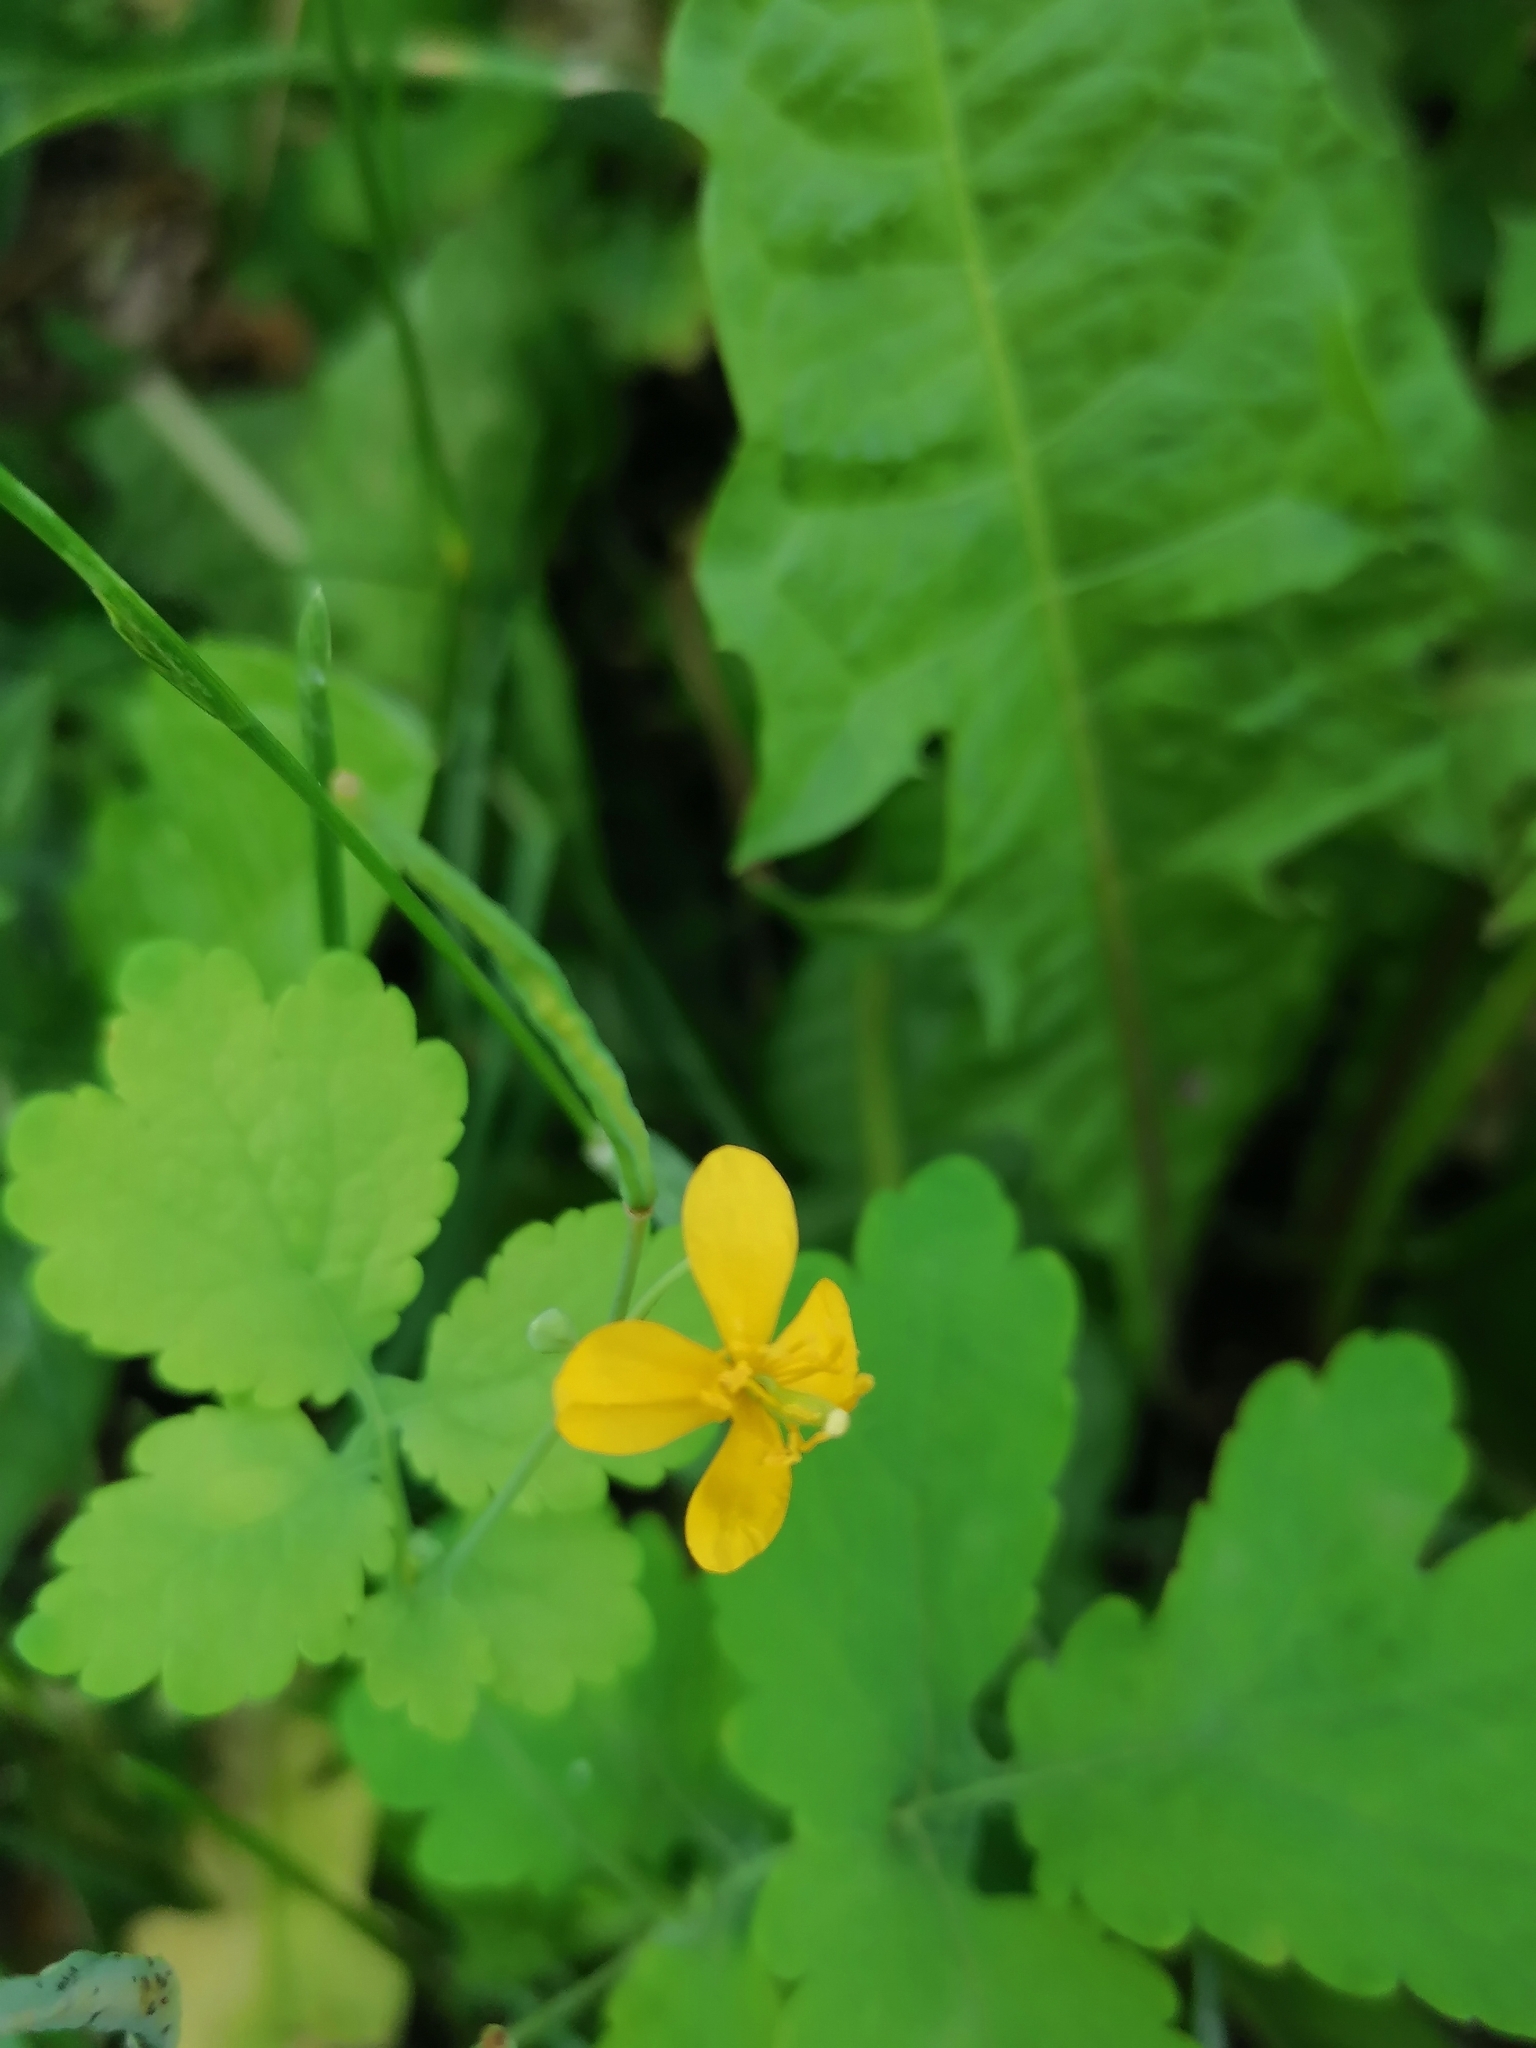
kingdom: Plantae
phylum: Tracheophyta
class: Magnoliopsida
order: Ranunculales
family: Papaveraceae
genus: Chelidonium
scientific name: Chelidonium majus
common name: Greater celandine
